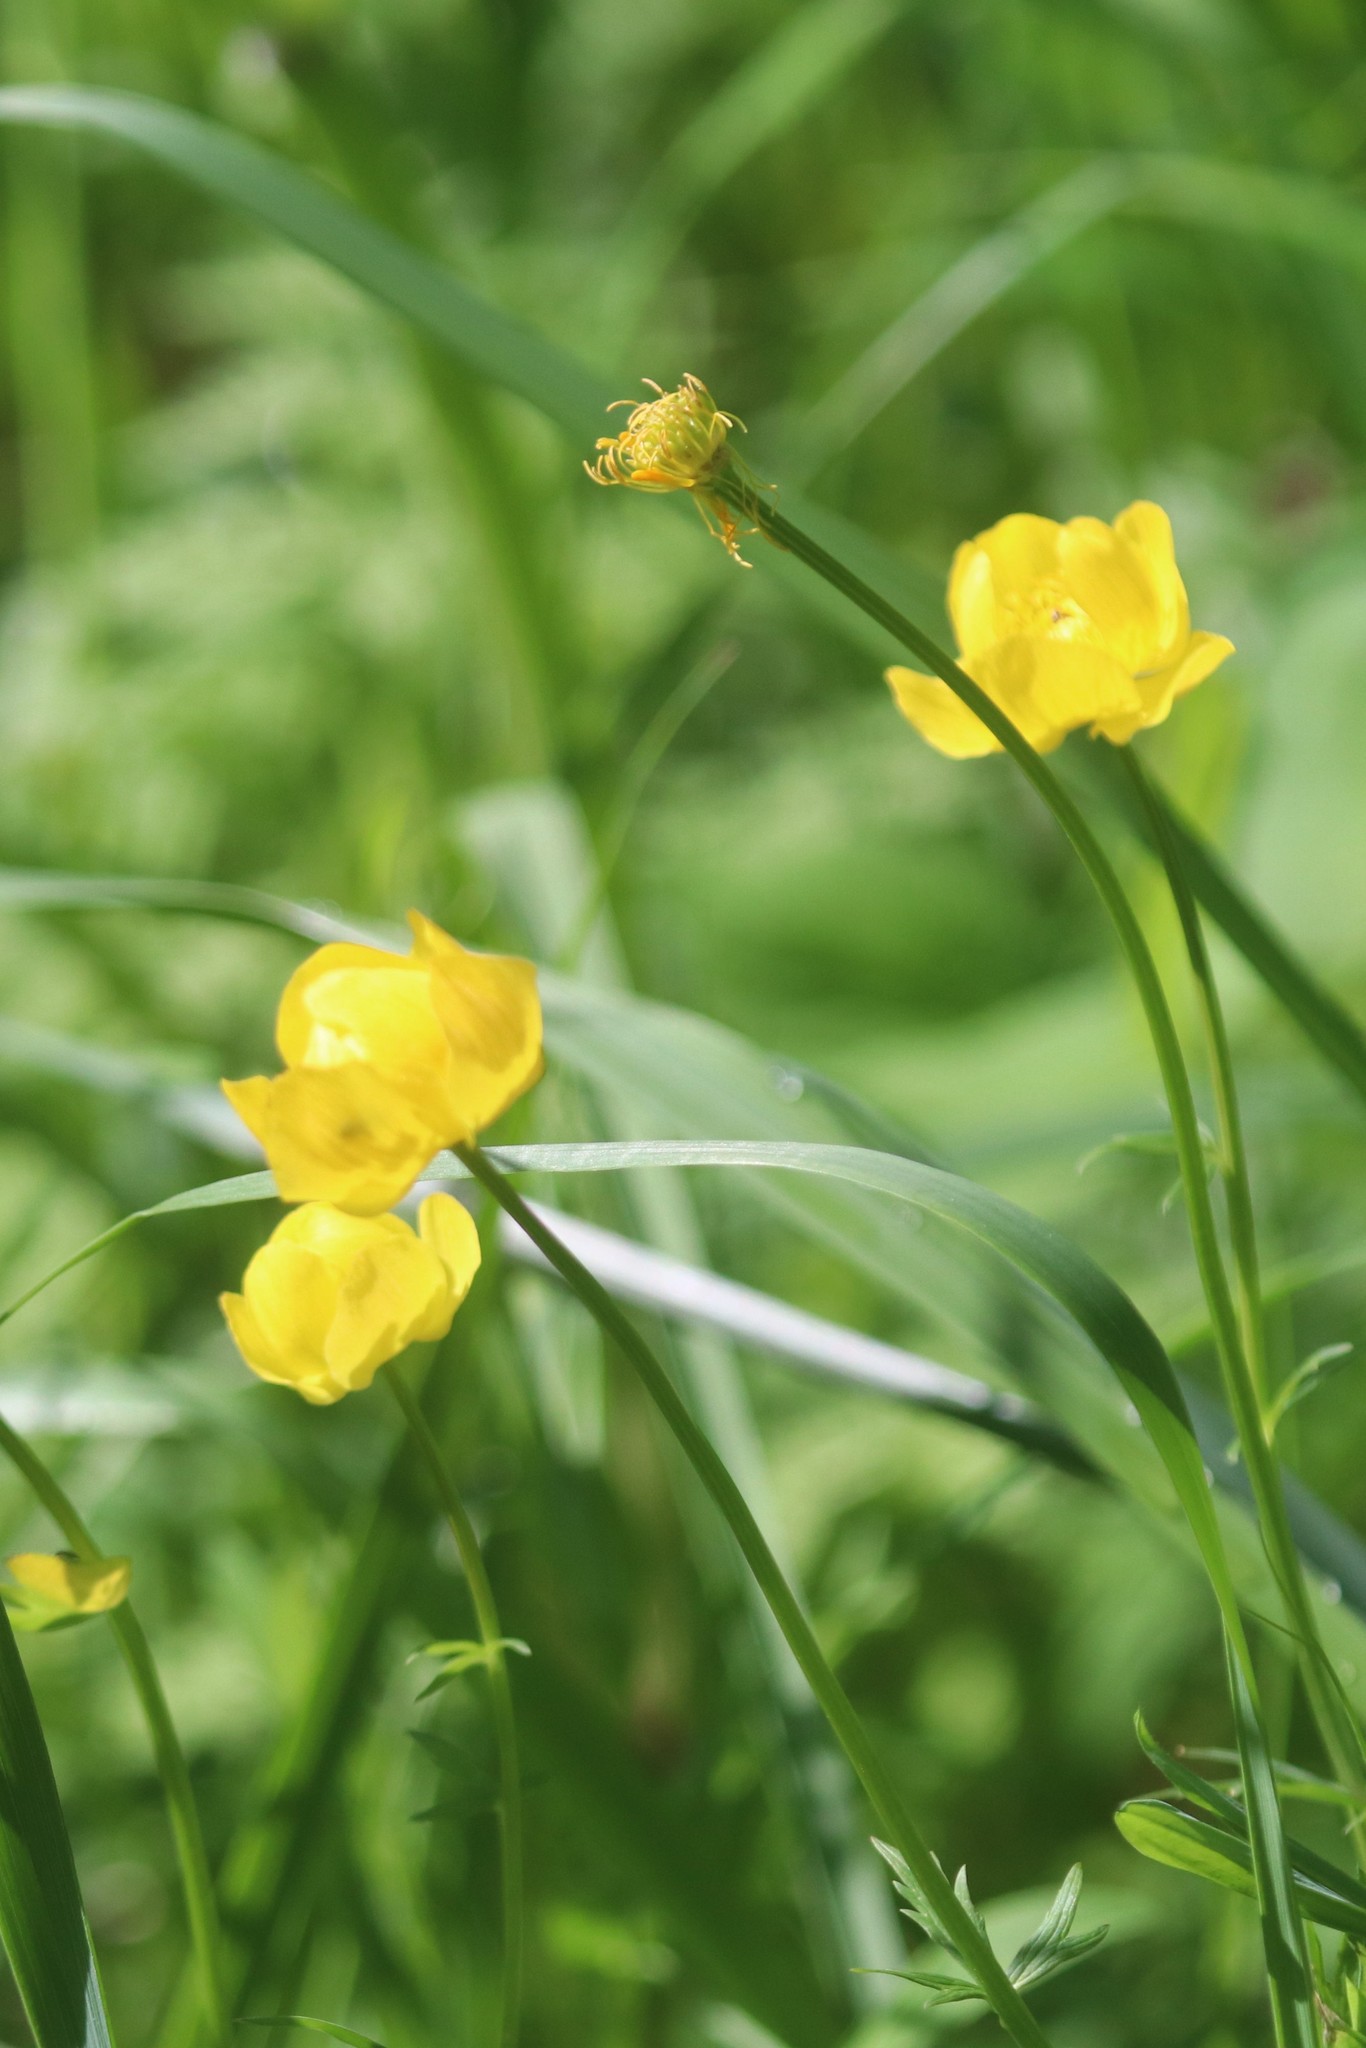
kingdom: Plantae
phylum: Tracheophyta
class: Magnoliopsida
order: Ranunculales
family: Ranunculaceae
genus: Trollius
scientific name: Trollius europaeus
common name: European globeflower
